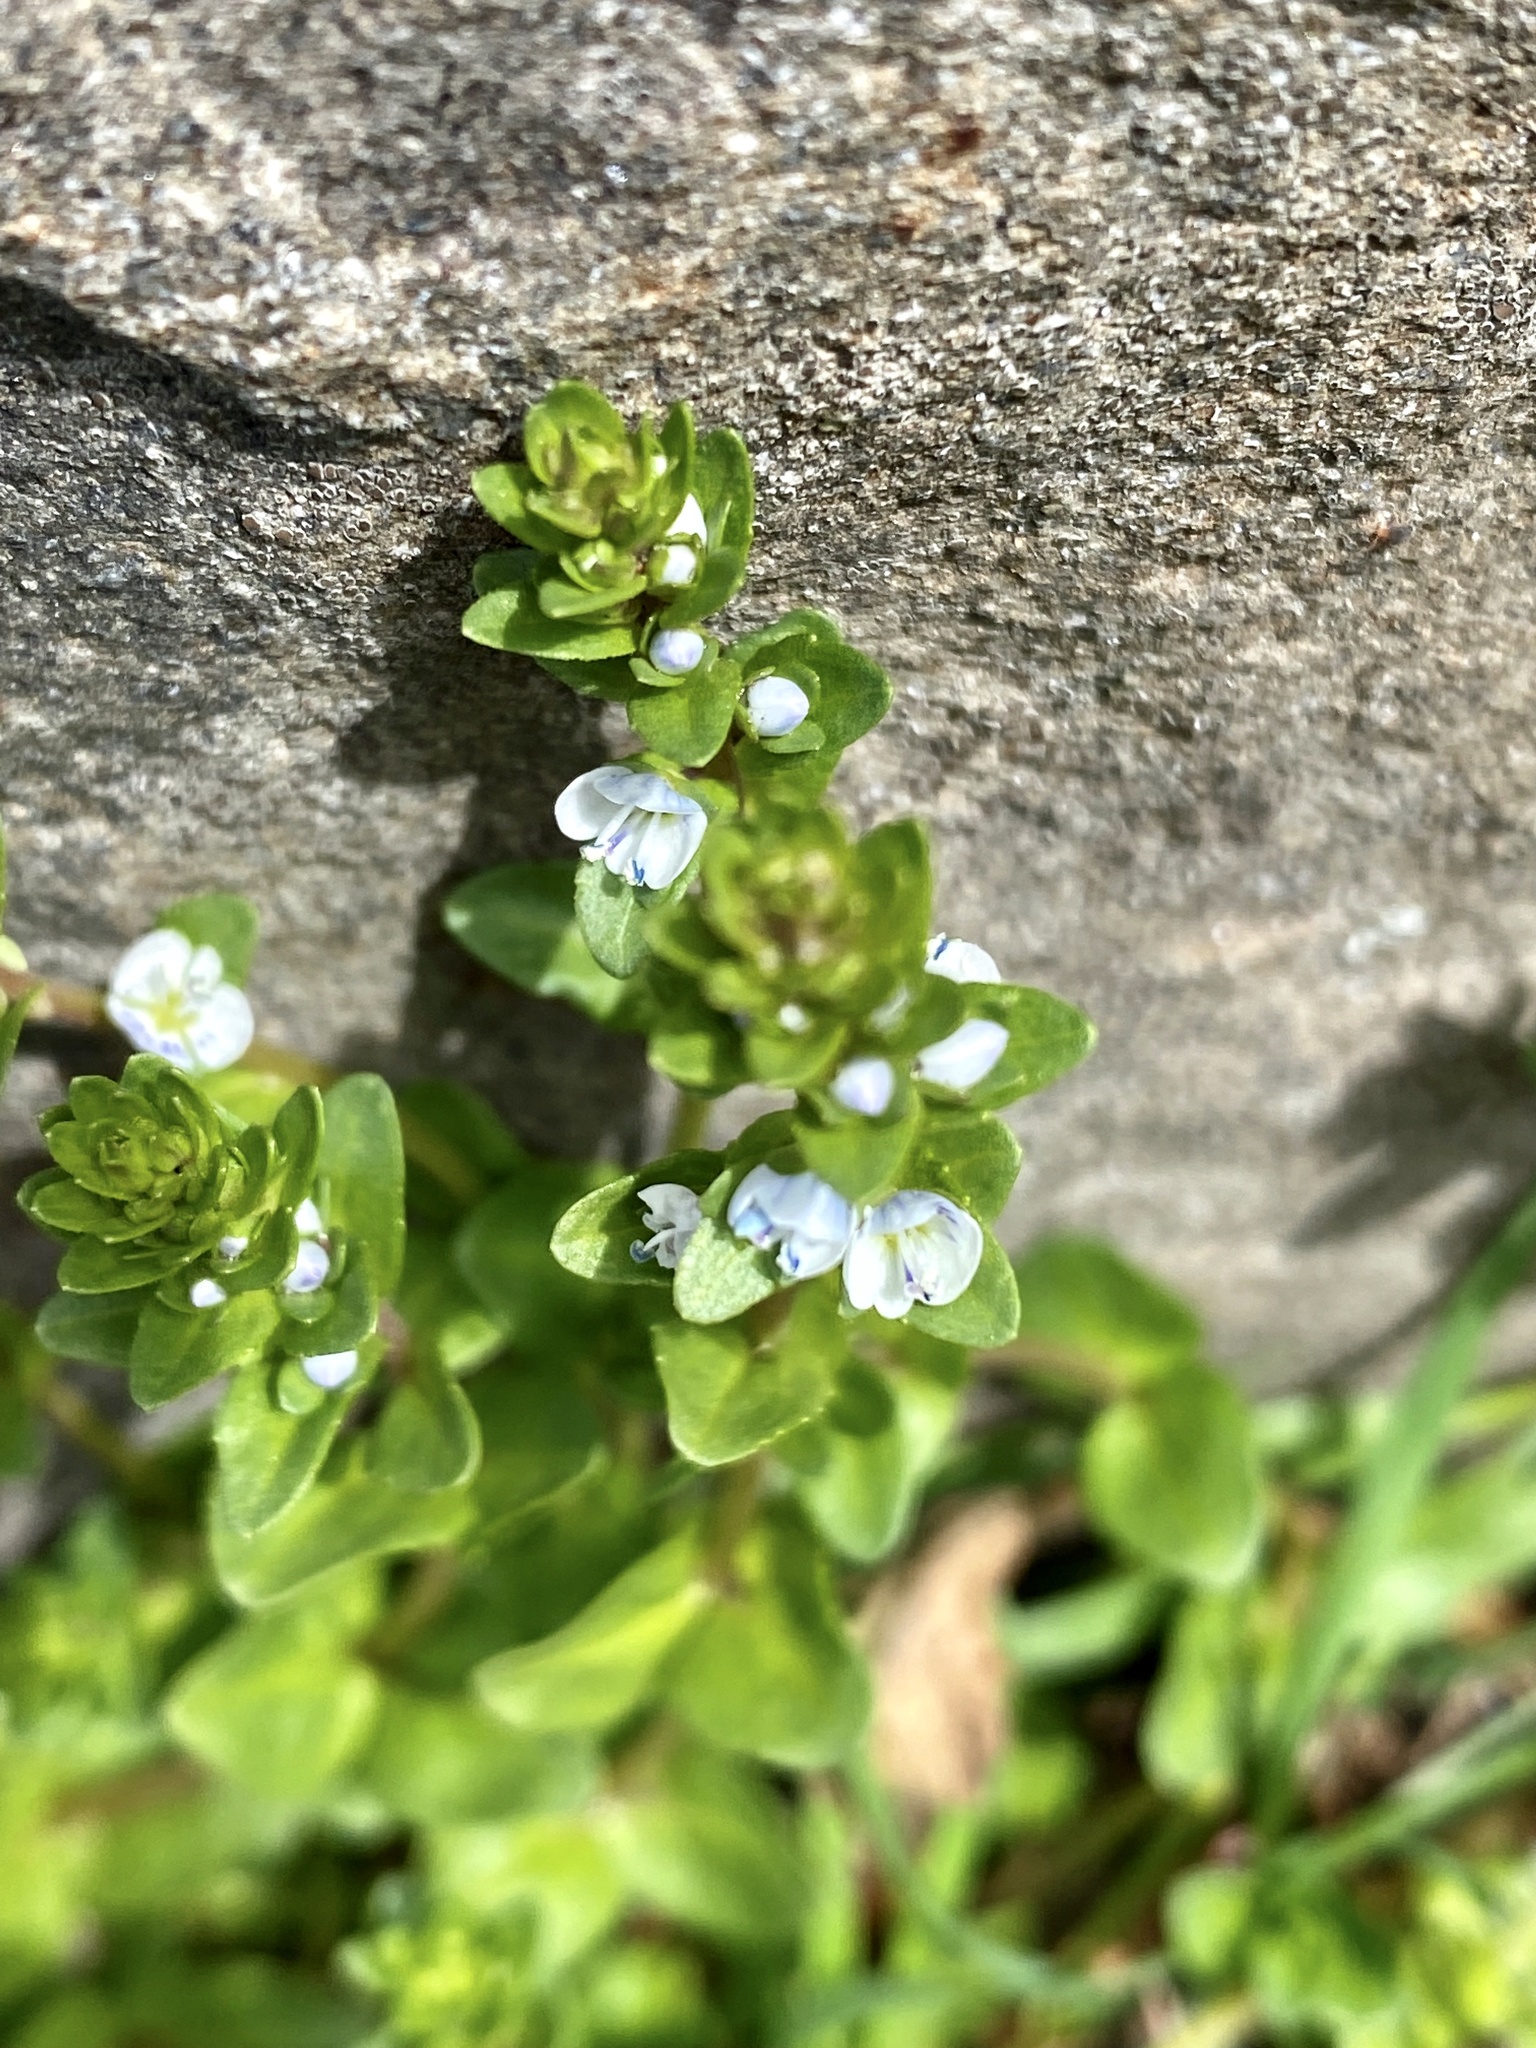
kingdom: Plantae
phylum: Tracheophyta
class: Magnoliopsida
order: Lamiales
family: Plantaginaceae
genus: Veronica
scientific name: Veronica serpyllifolia
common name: Thyme-leaved speedwell
